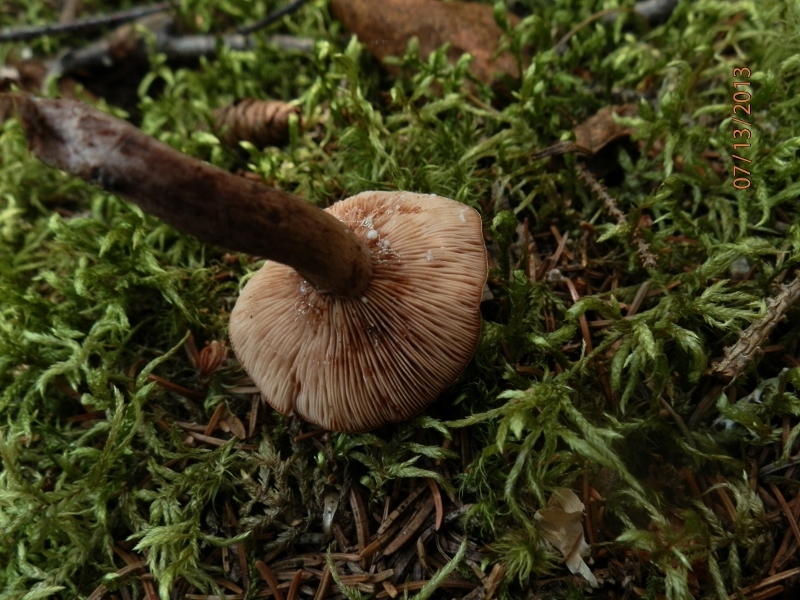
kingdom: Fungi
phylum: Basidiomycota
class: Agaricomycetes
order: Russulales
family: Russulaceae
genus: Lactarius
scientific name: Lactarius camphoratus
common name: Curry milkcap
